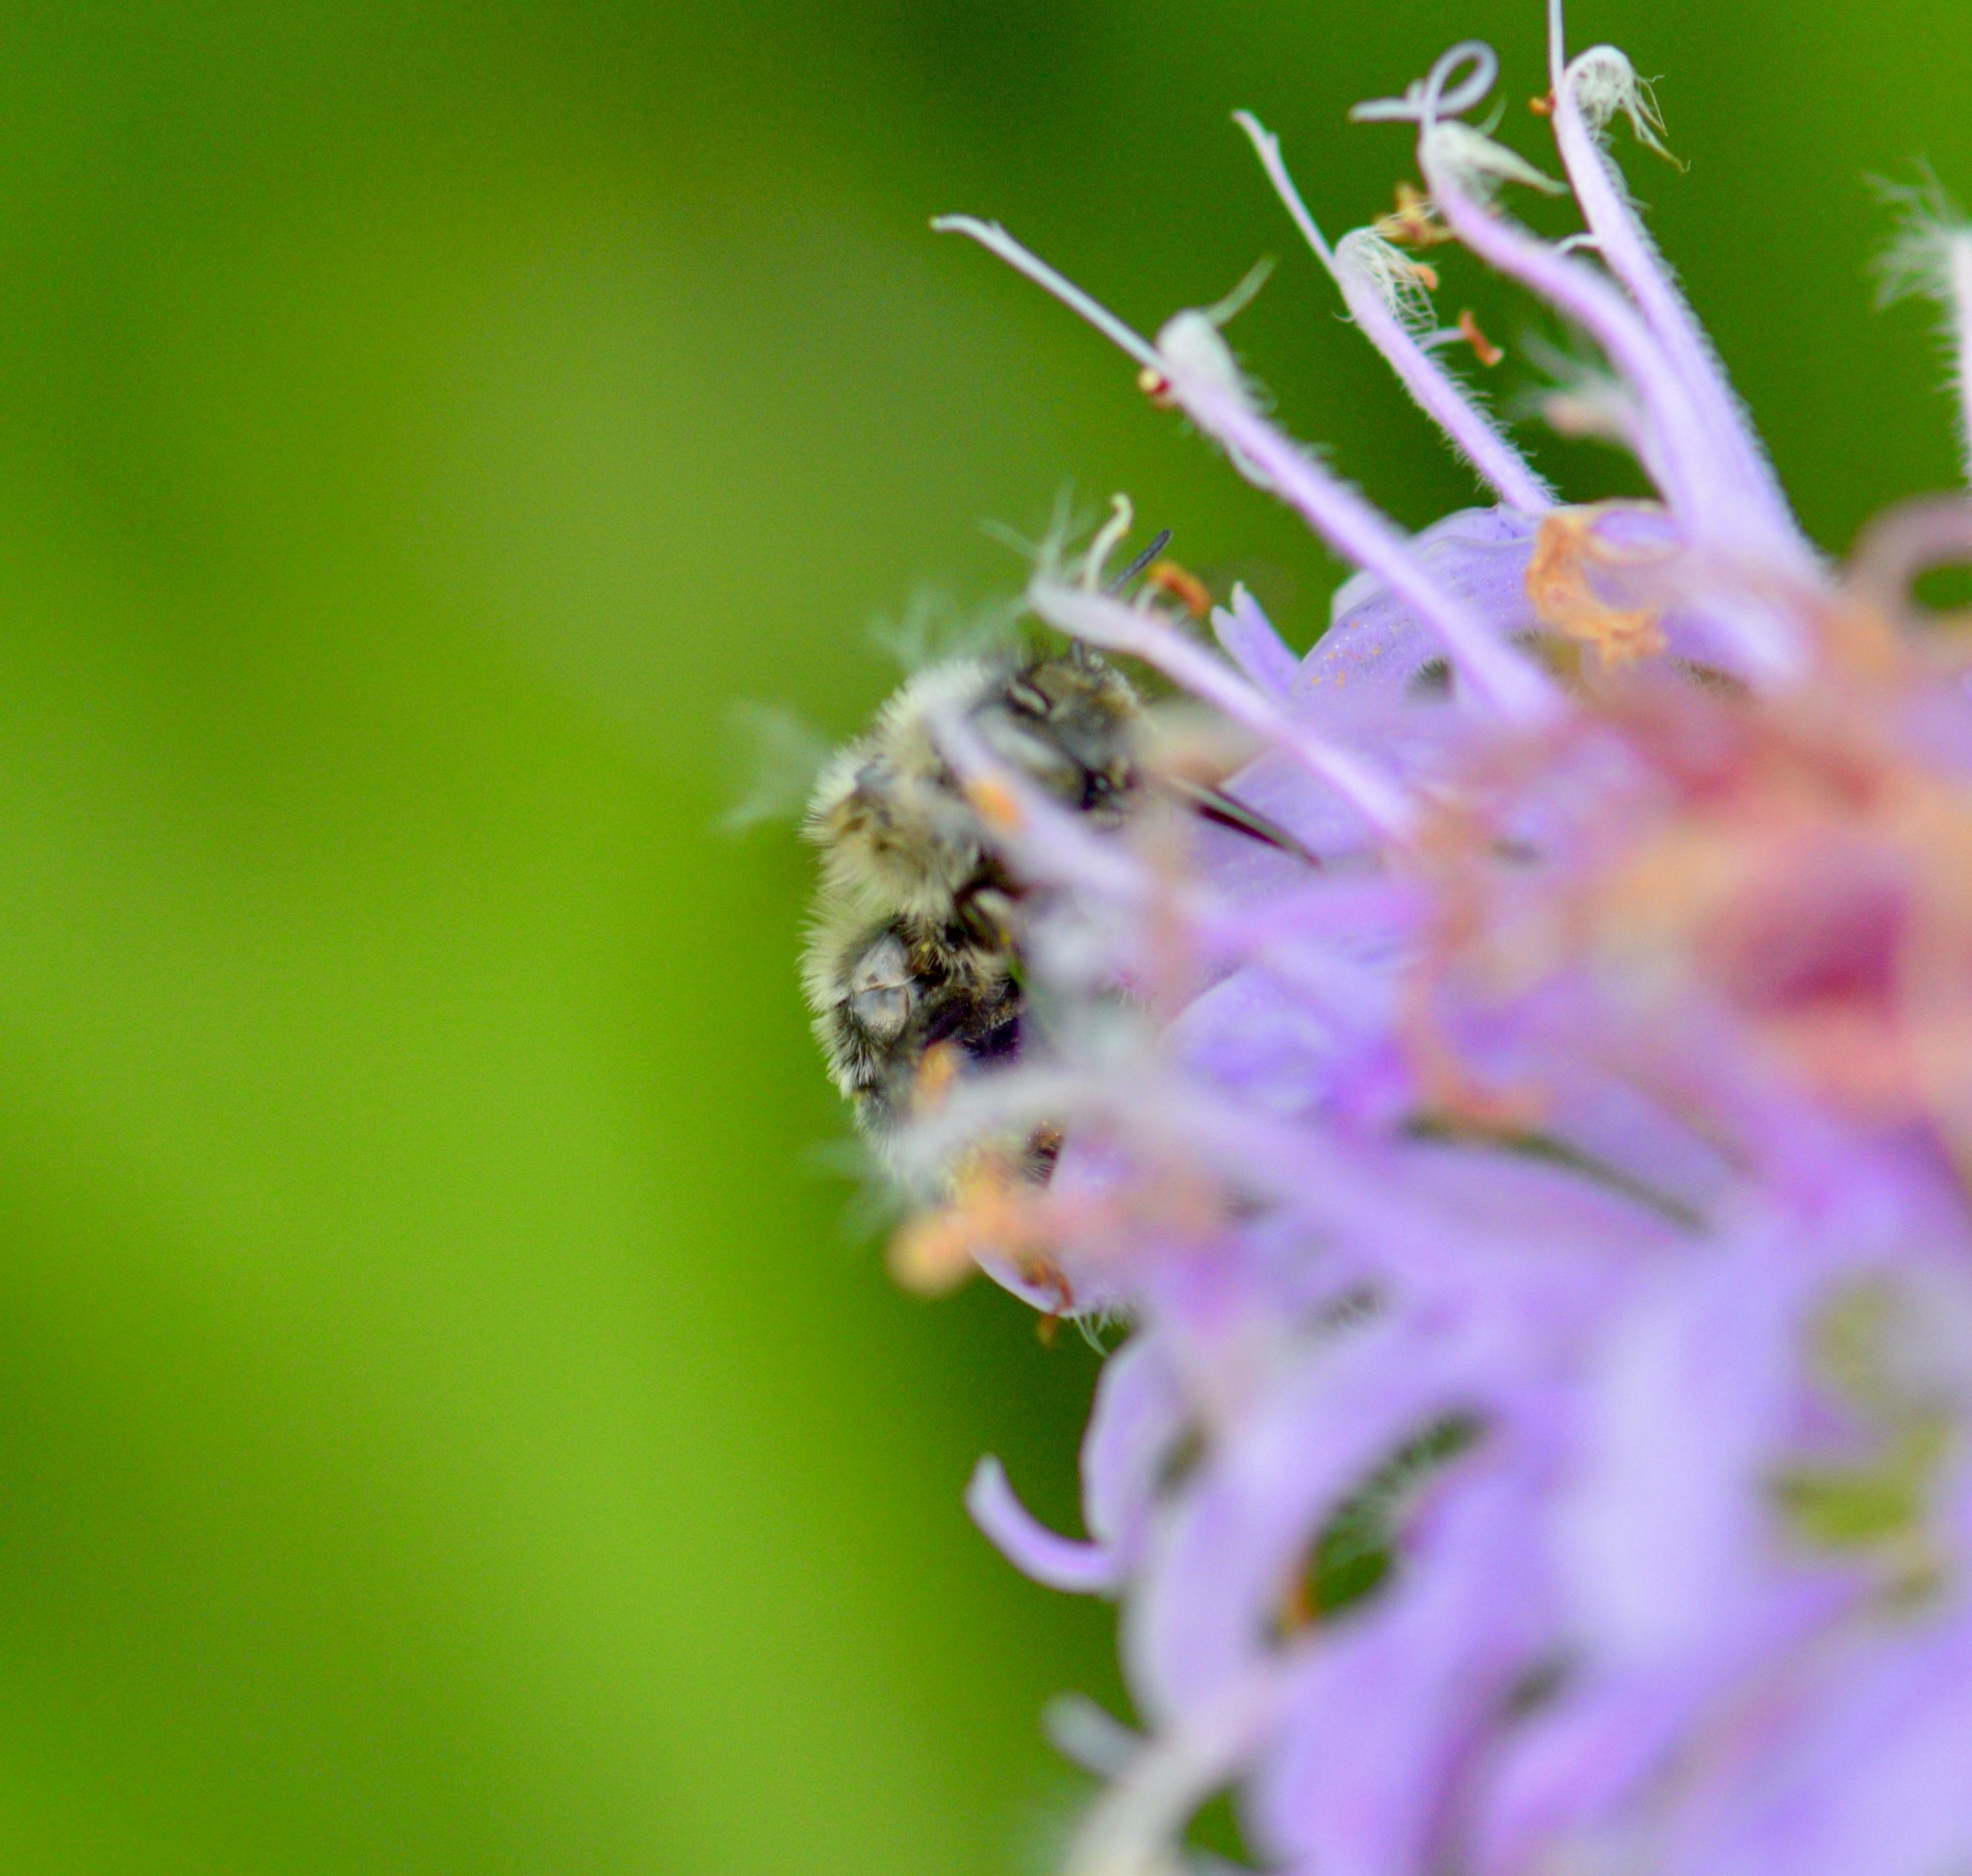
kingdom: Animalia
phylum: Arthropoda
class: Insecta
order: Hymenoptera
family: Apidae
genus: Anthophora
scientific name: Anthophora terminalis
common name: Orange-tipped wood-digger bee
